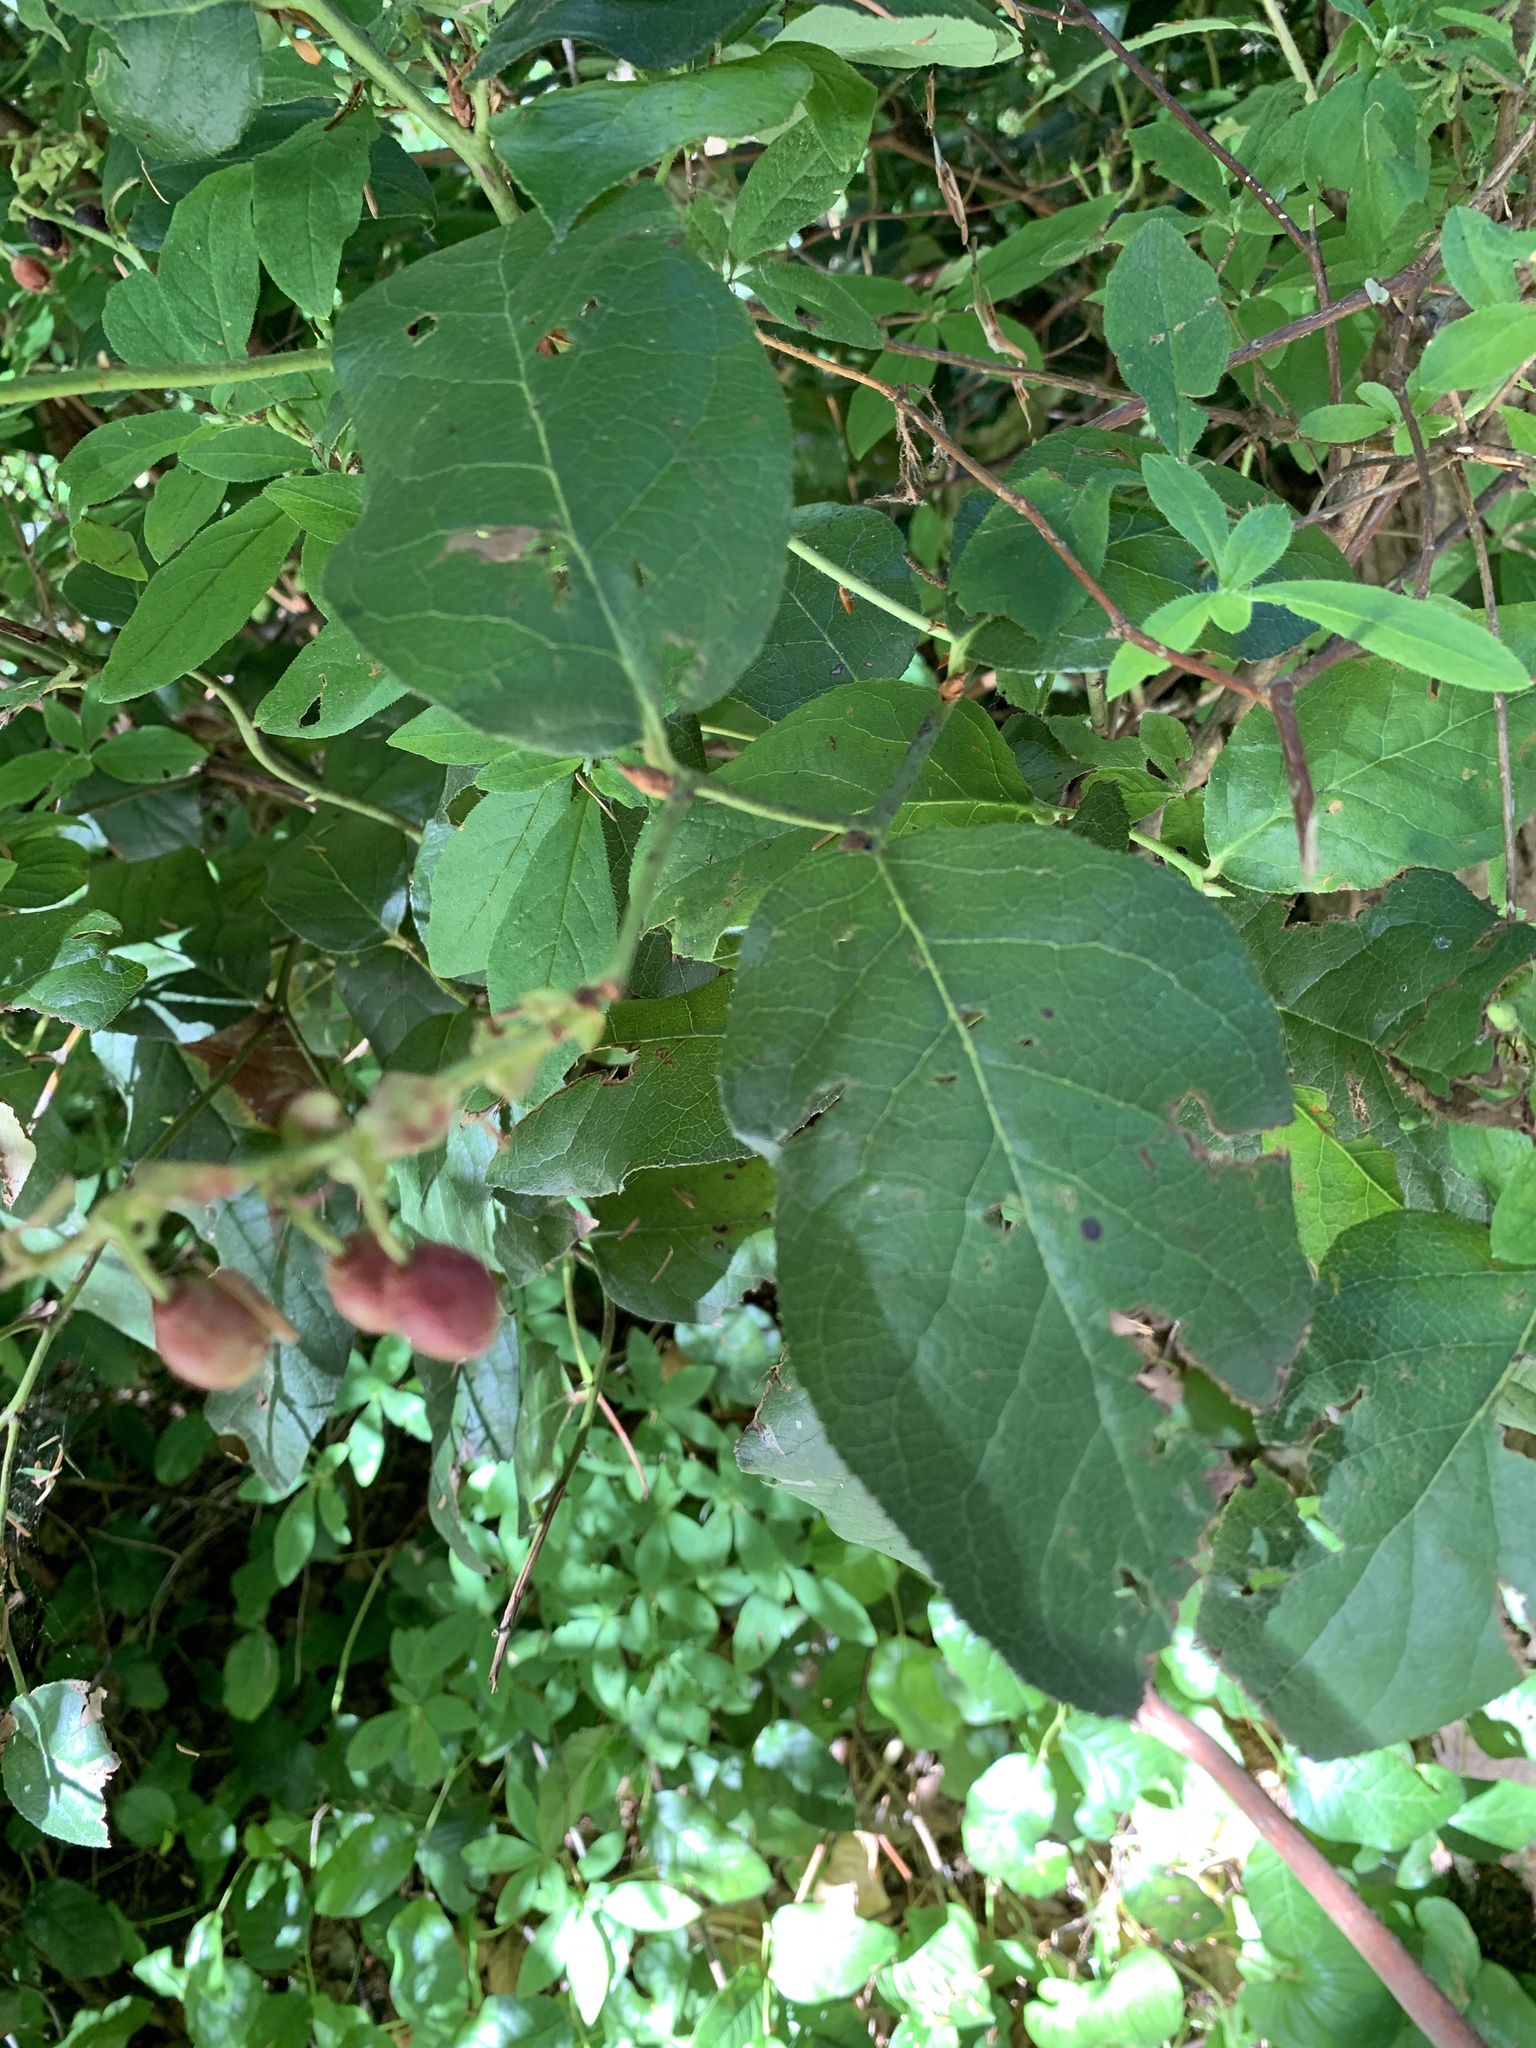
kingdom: Plantae
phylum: Tracheophyta
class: Magnoliopsida
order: Ericales
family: Ericaceae
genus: Gaultheria
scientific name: Gaultheria shallon
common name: Shallon
